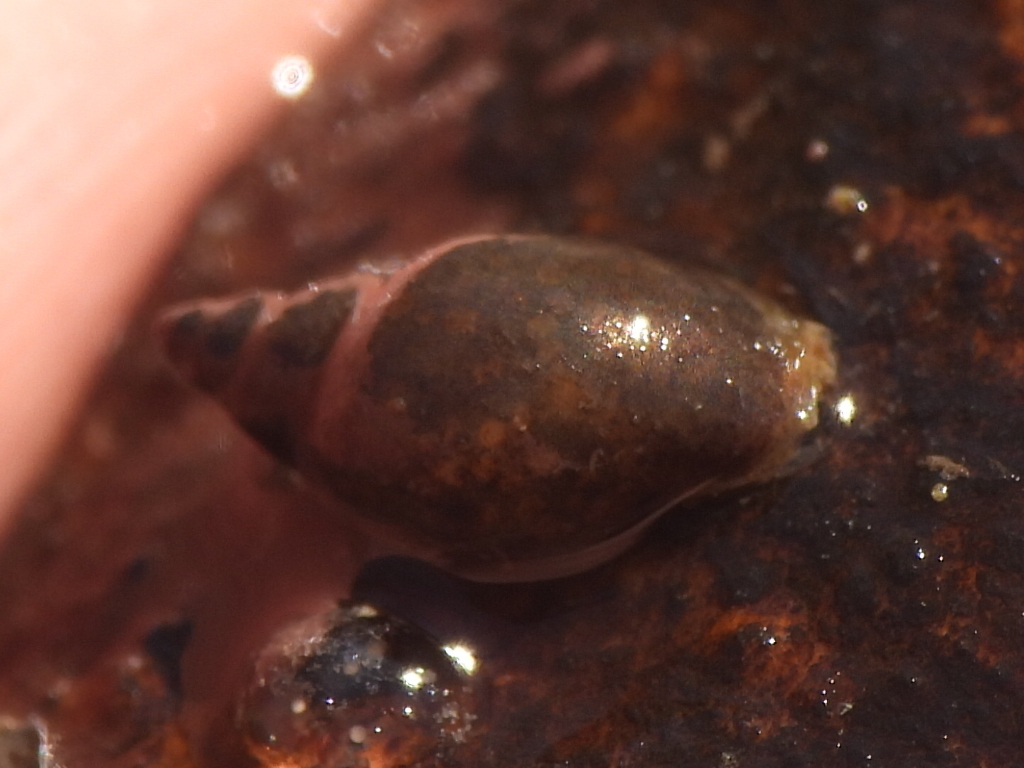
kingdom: Animalia
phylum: Mollusca
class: Gastropoda
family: Physidae
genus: Physella
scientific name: Physella acuta
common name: European physa
